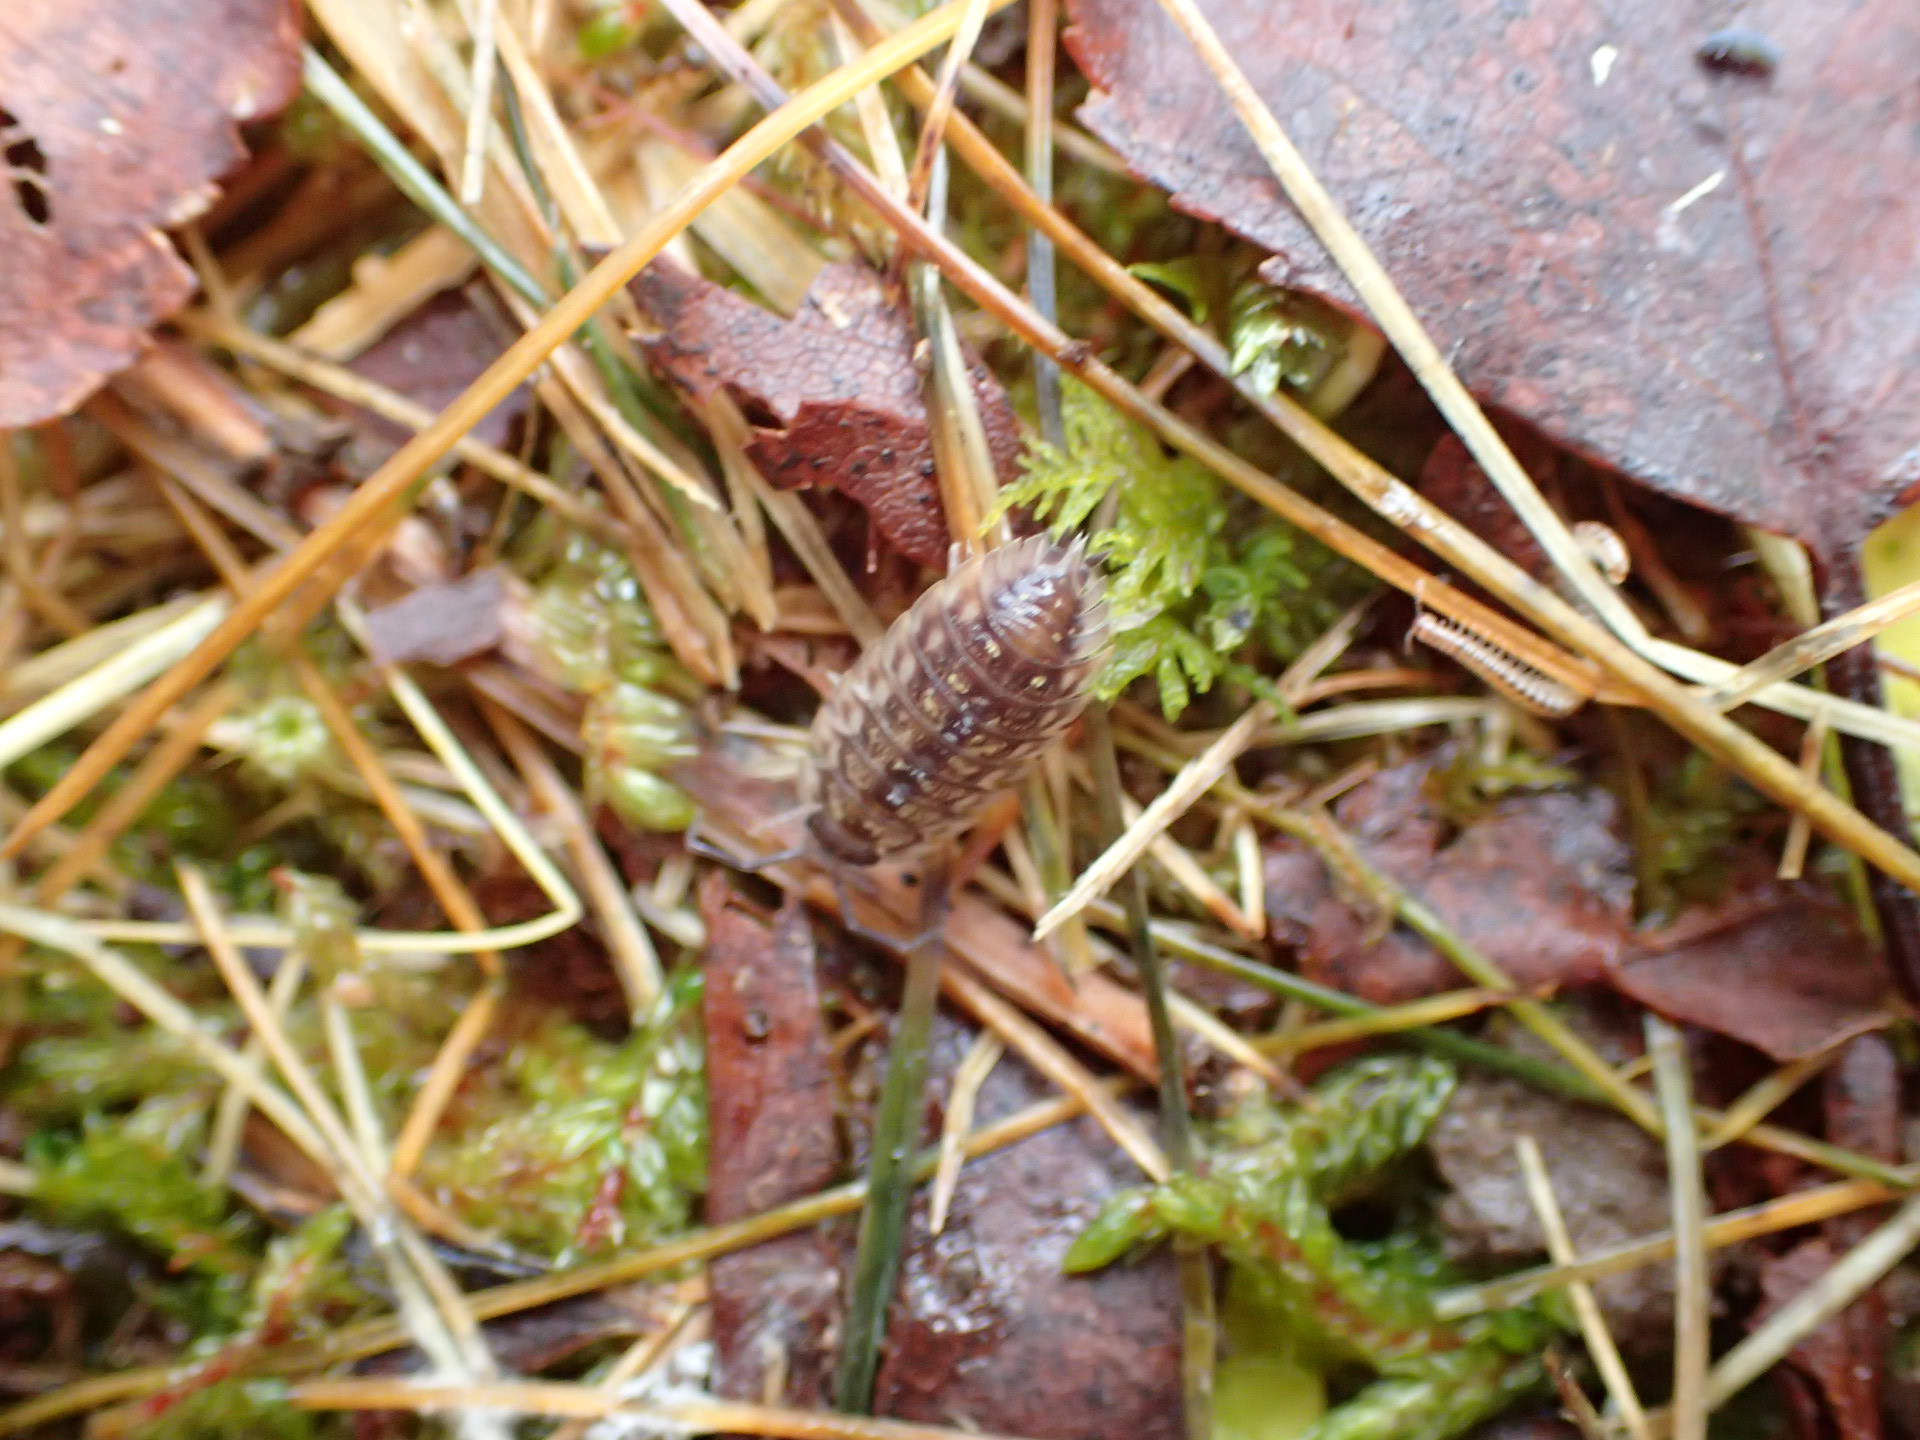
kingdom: Animalia
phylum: Arthropoda
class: Malacostraca
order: Isopoda
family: Oniscidae
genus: Oniscus
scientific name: Oniscus asellus
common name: Common shiny woodlouse
